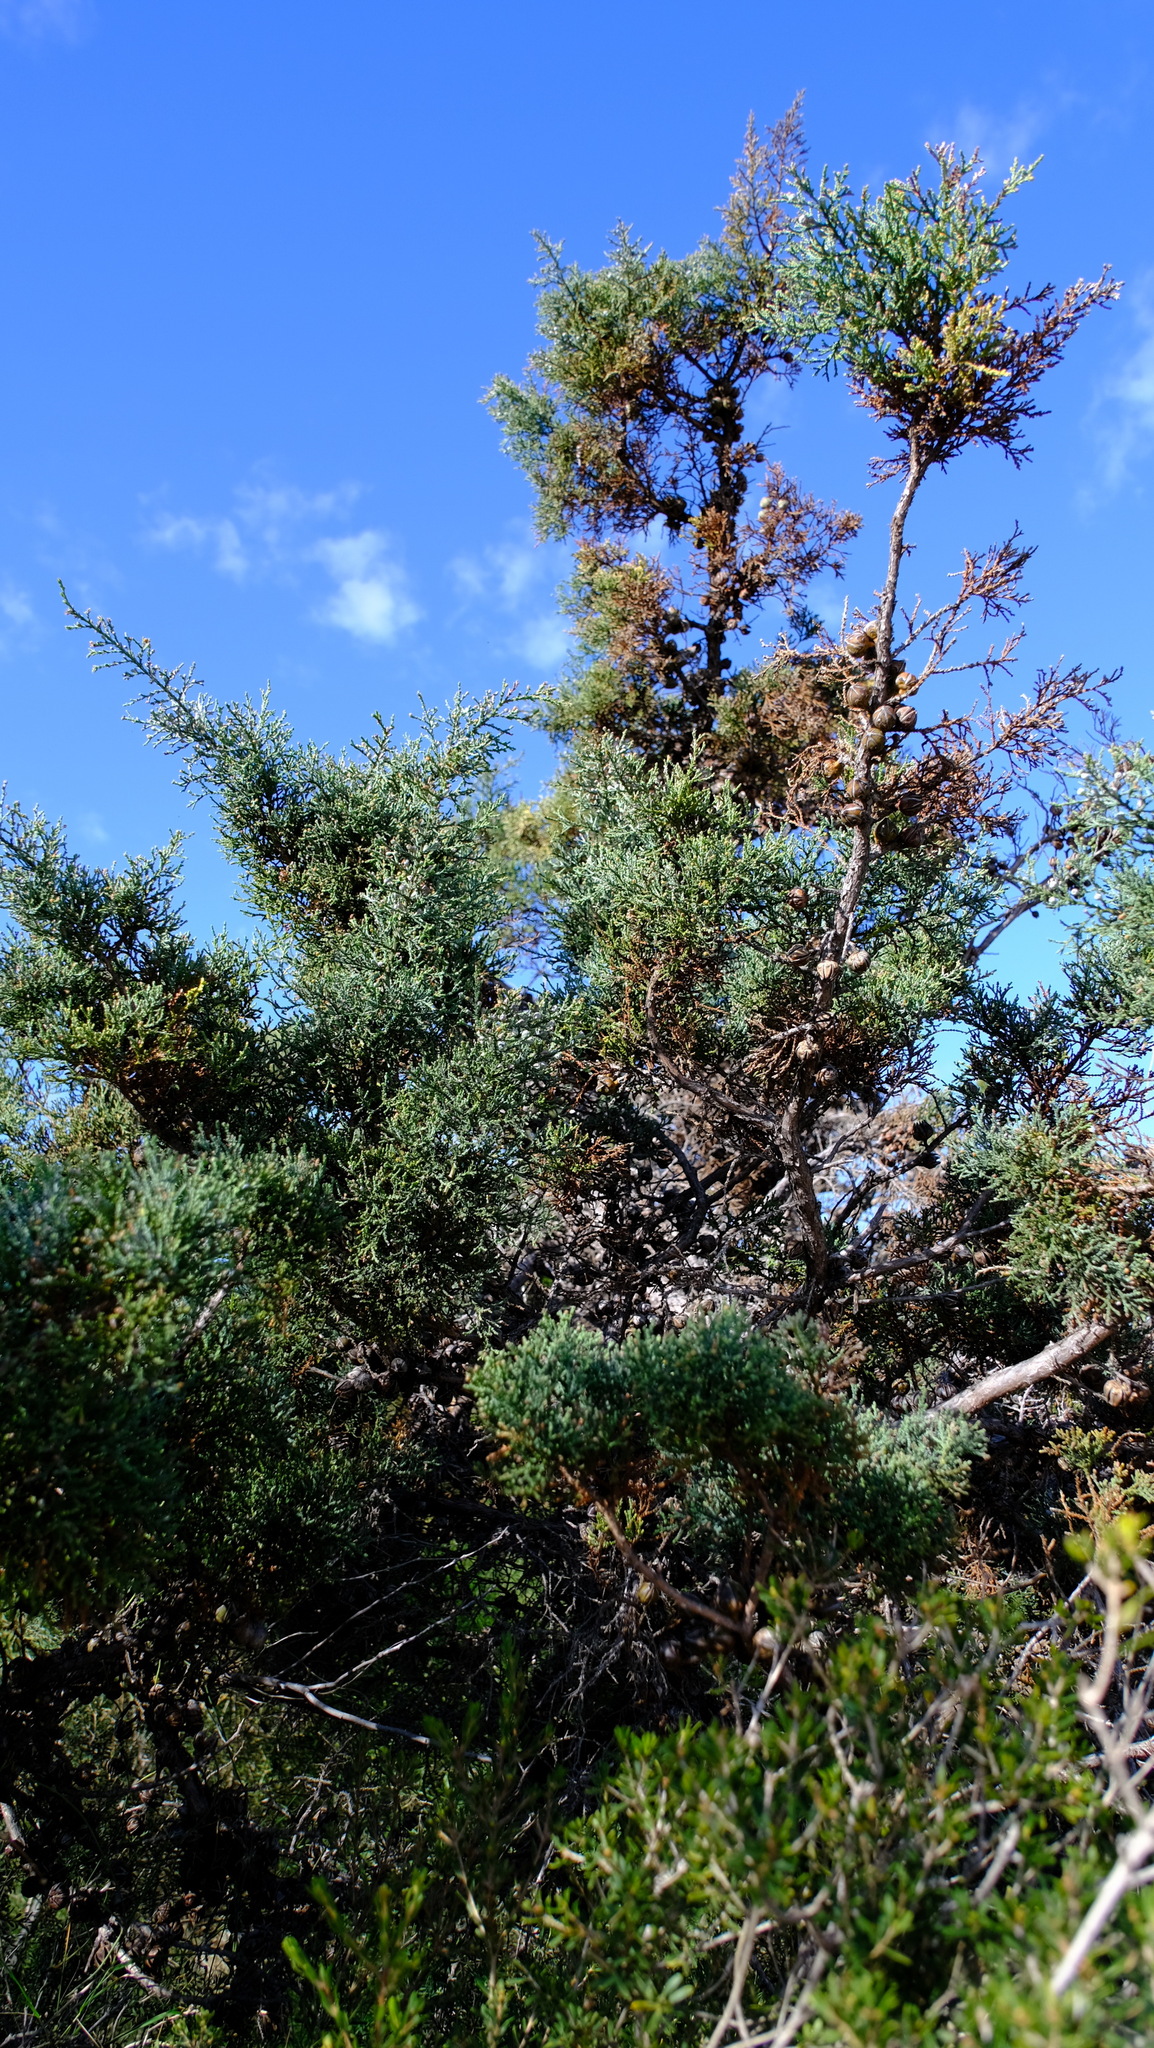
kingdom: Plantae
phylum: Tracheophyta
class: Pinopsida
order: Pinales
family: Cupressaceae
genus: Actinostrobus
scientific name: Actinostrobus arenarius
